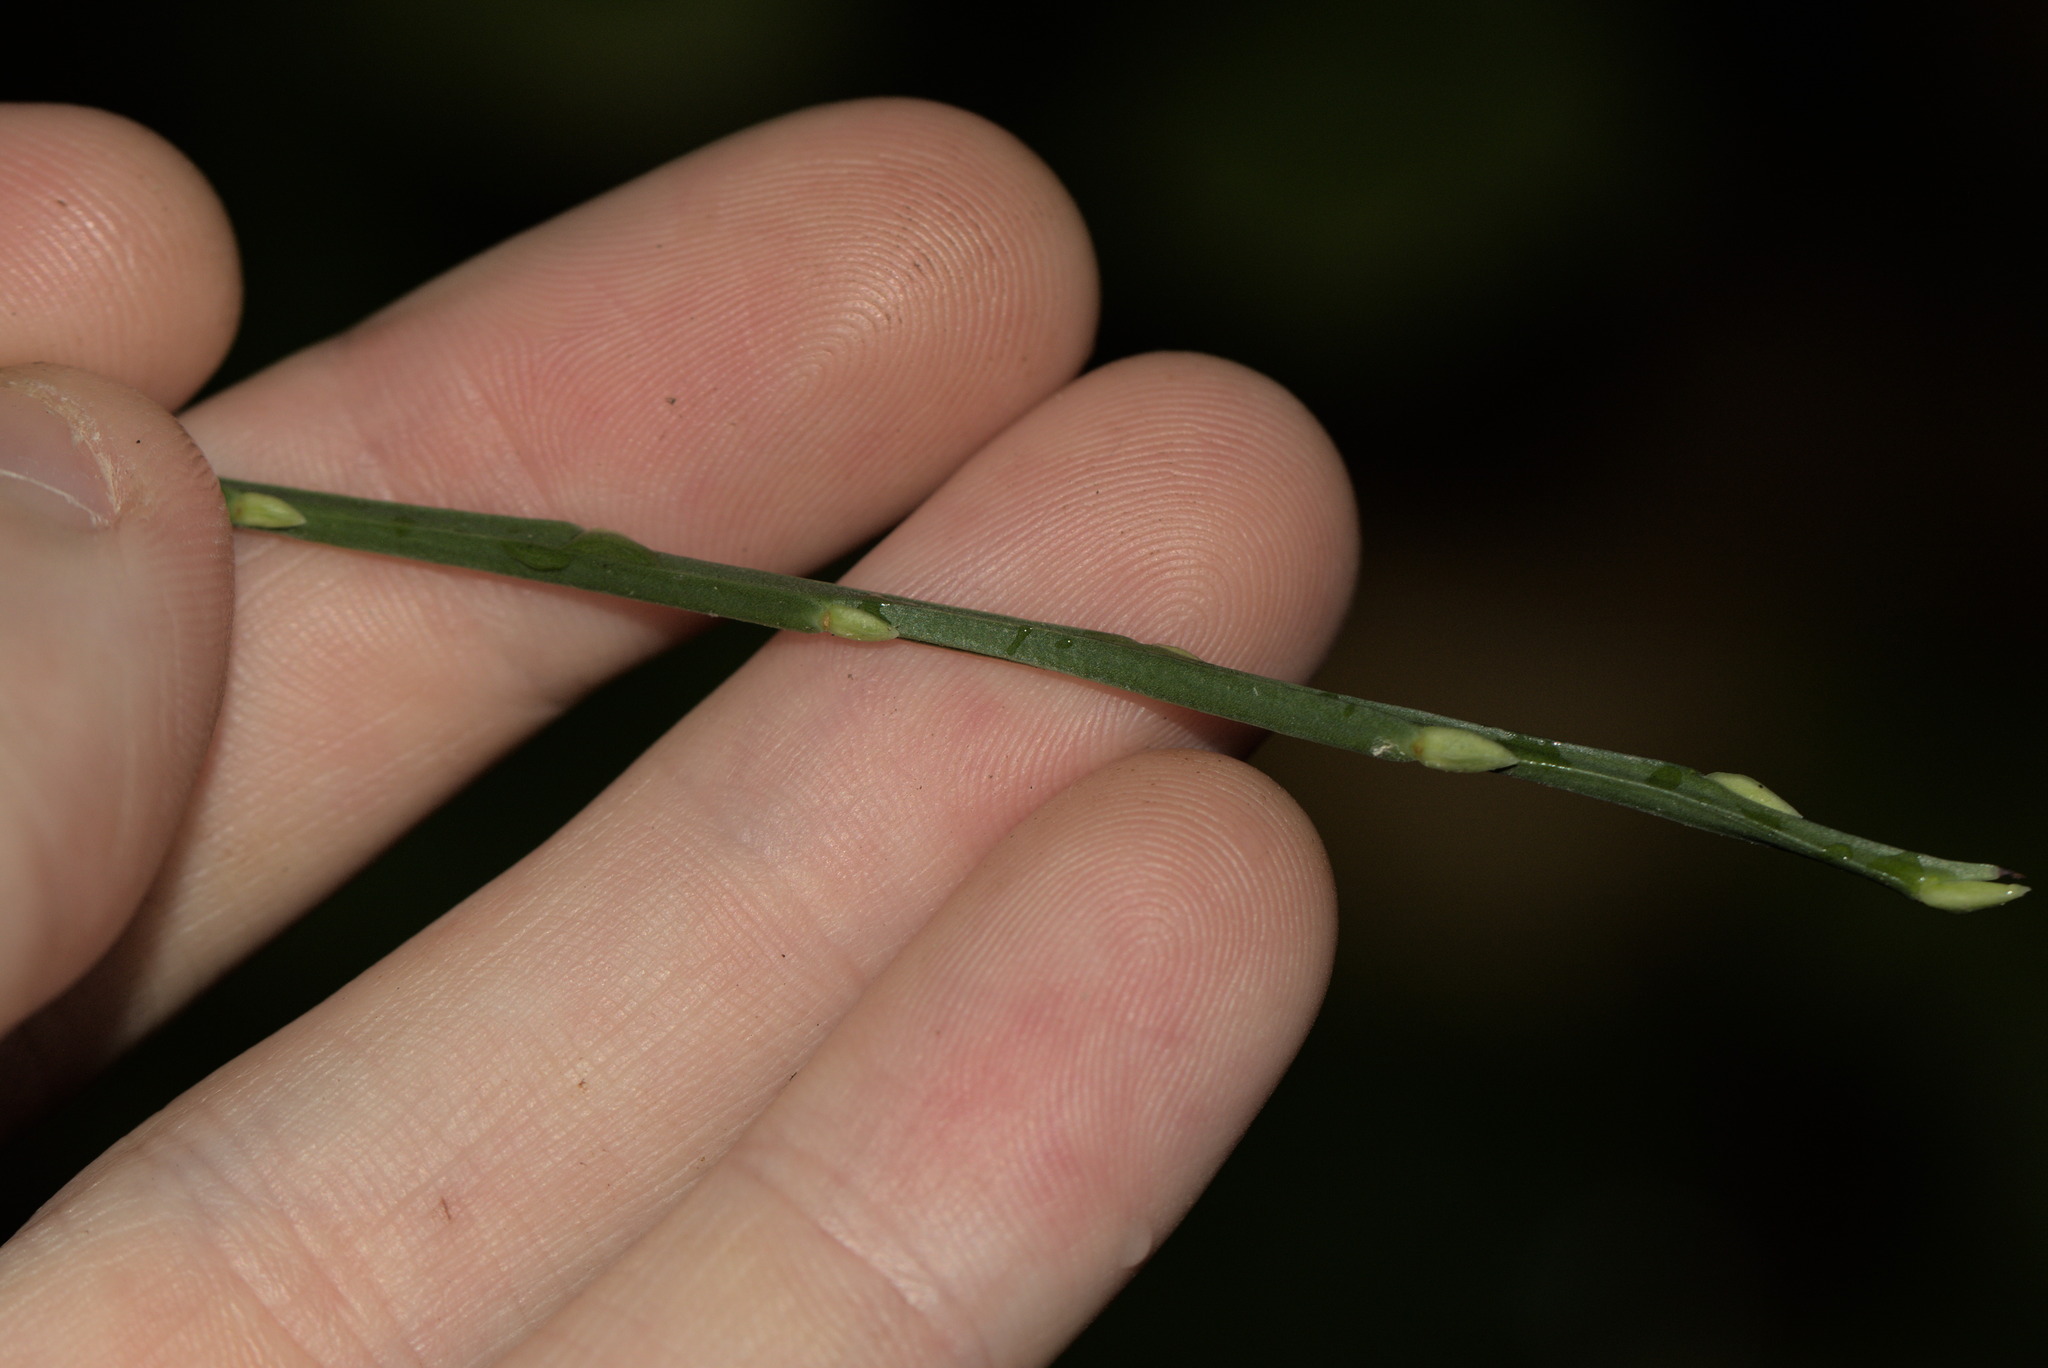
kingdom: Plantae
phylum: Tracheophyta
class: Magnoliopsida
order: Ericales
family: Ericaceae
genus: Vaccinium
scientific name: Vaccinium parvifolium
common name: Red-huckleberry
